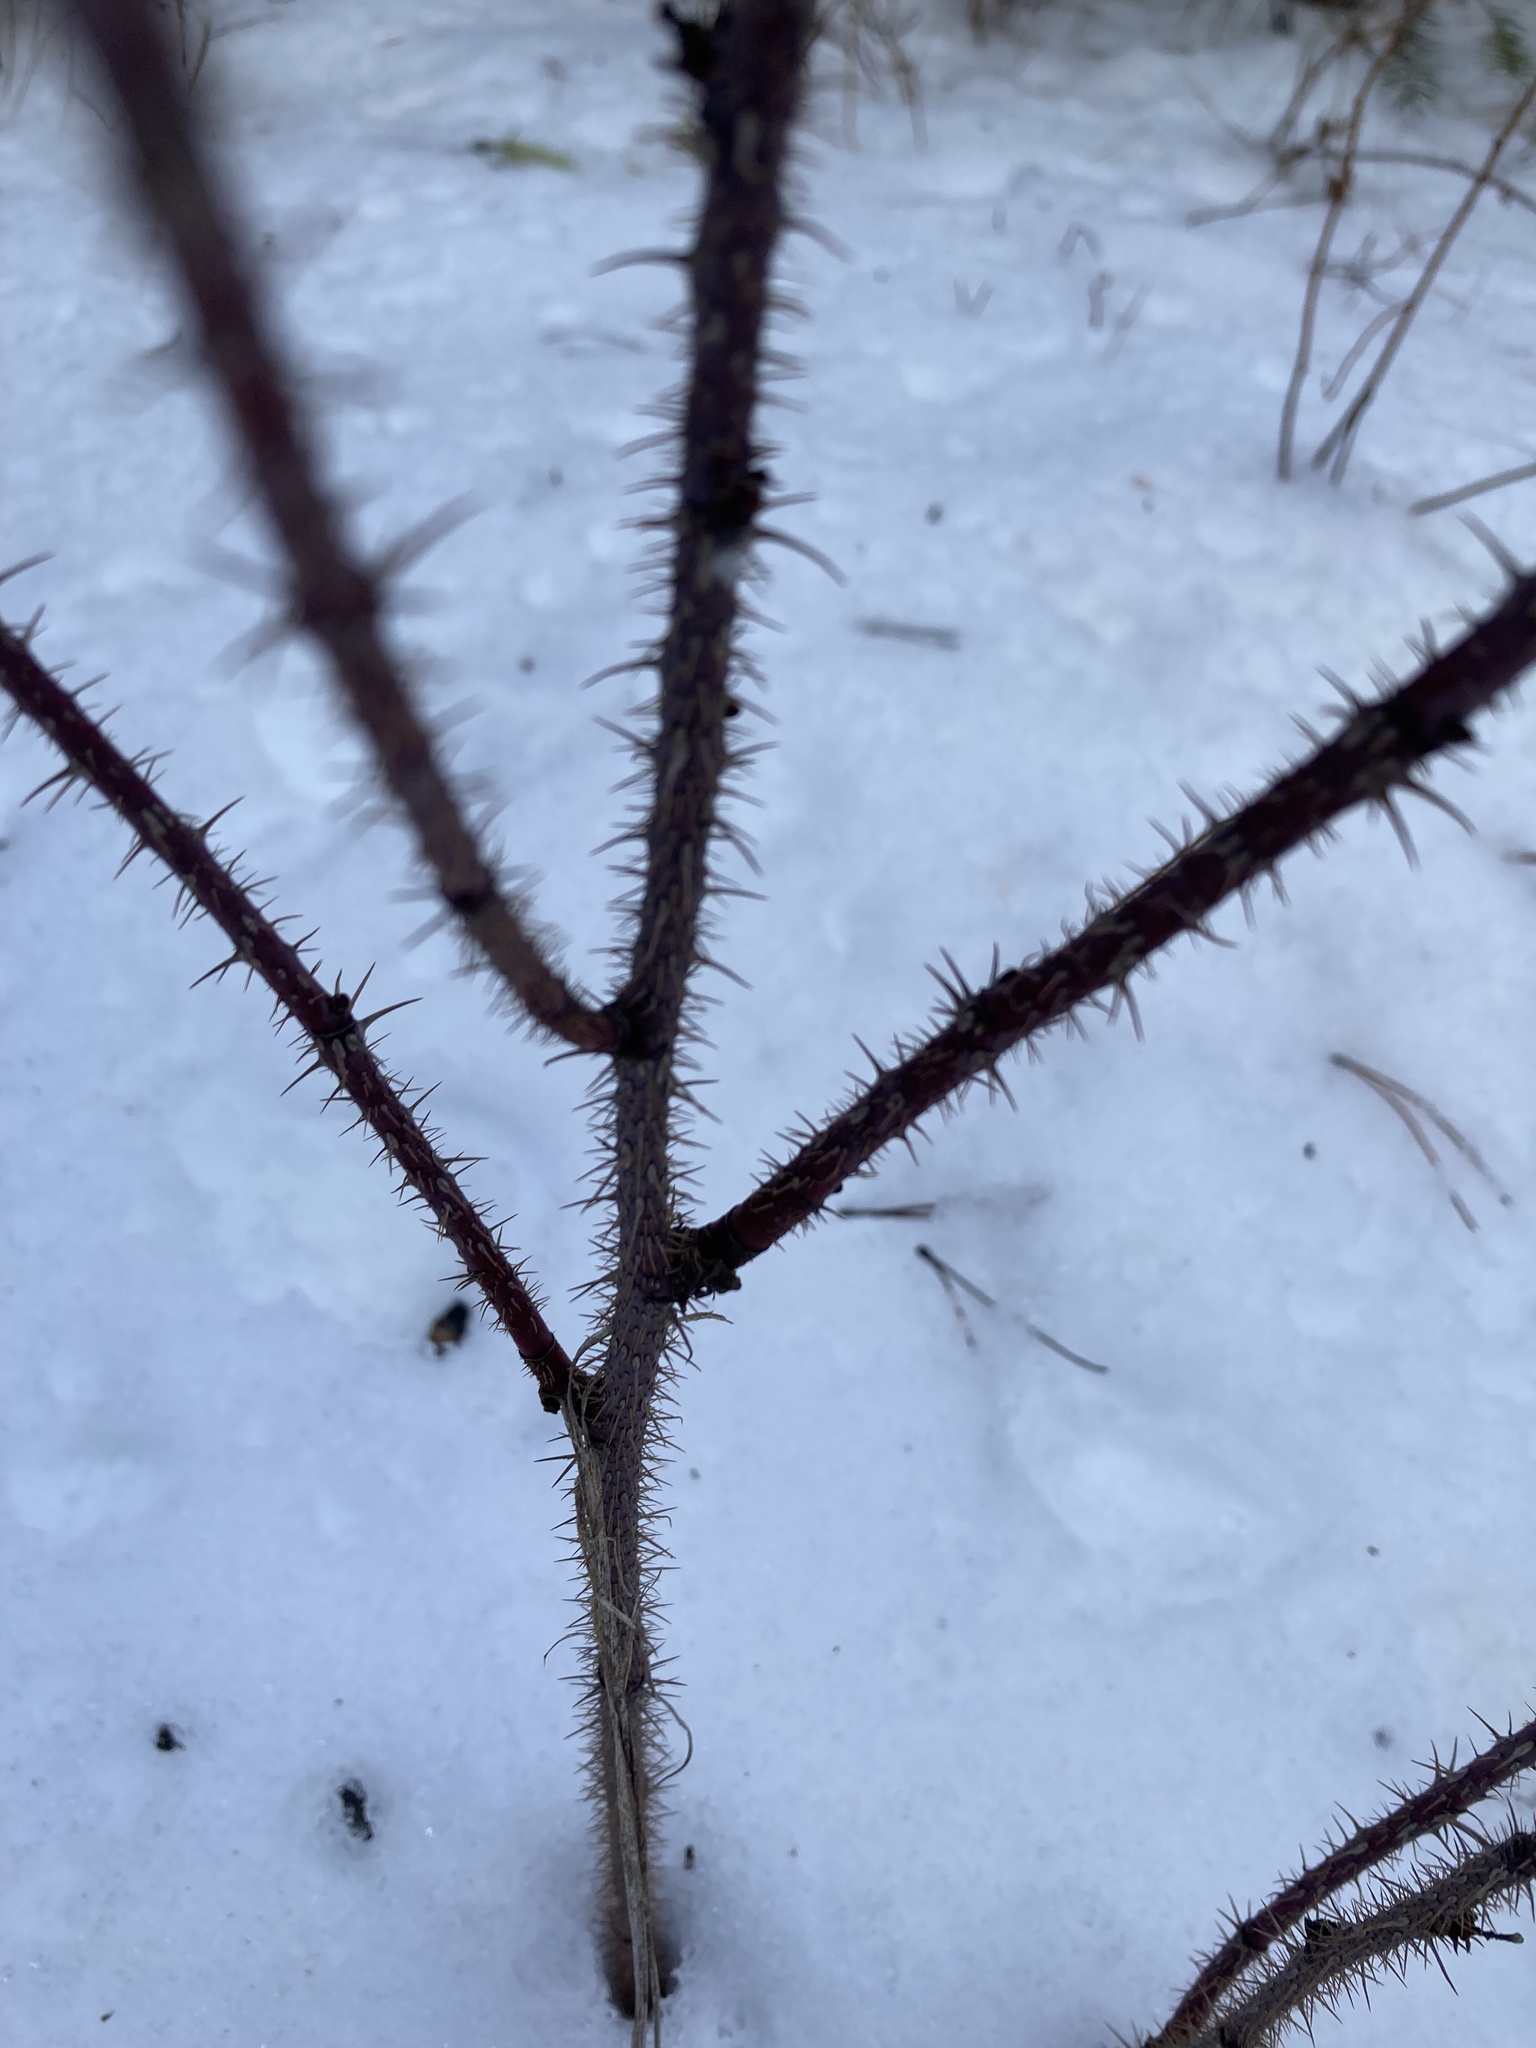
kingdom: Plantae
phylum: Tracheophyta
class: Magnoliopsida
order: Rosales
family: Rosaceae
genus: Rosa
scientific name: Rosa acicularis
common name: Prickly rose
